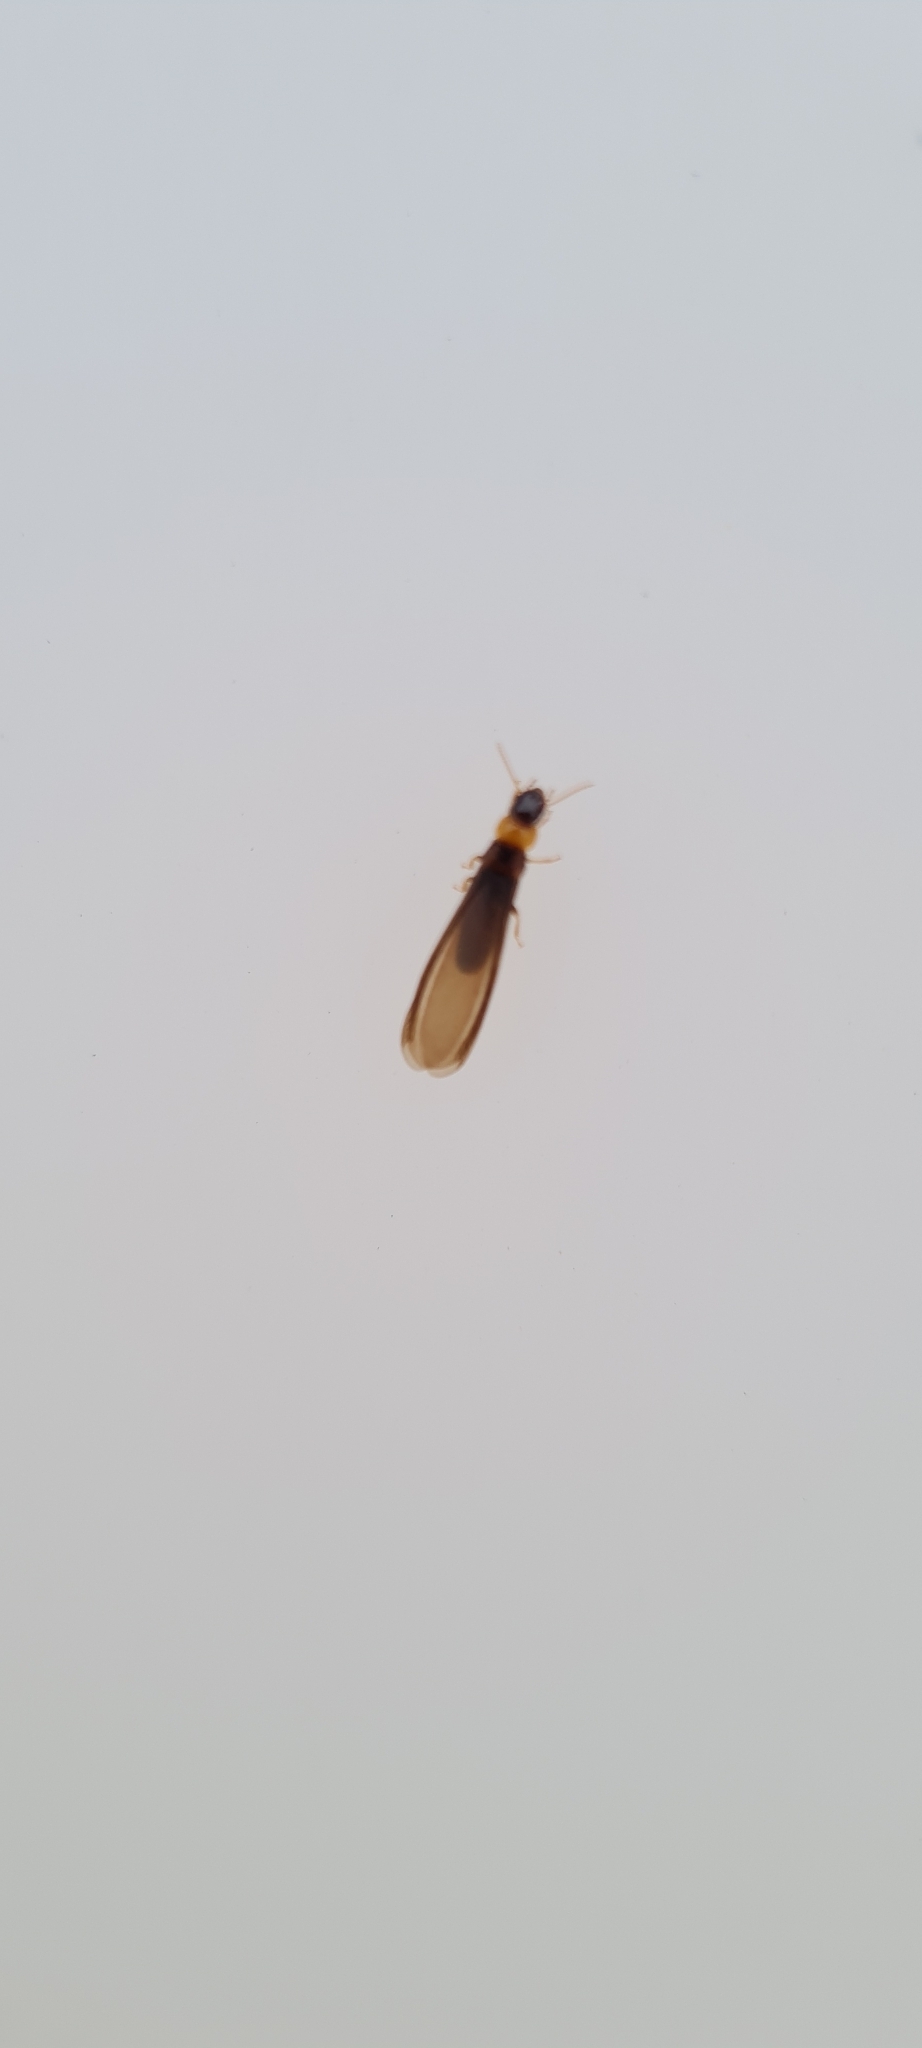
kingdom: Animalia
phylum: Arthropoda
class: Insecta
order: Blattodea
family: Kalotermitidae
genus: Kalotermes
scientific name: Kalotermes flavicollis
